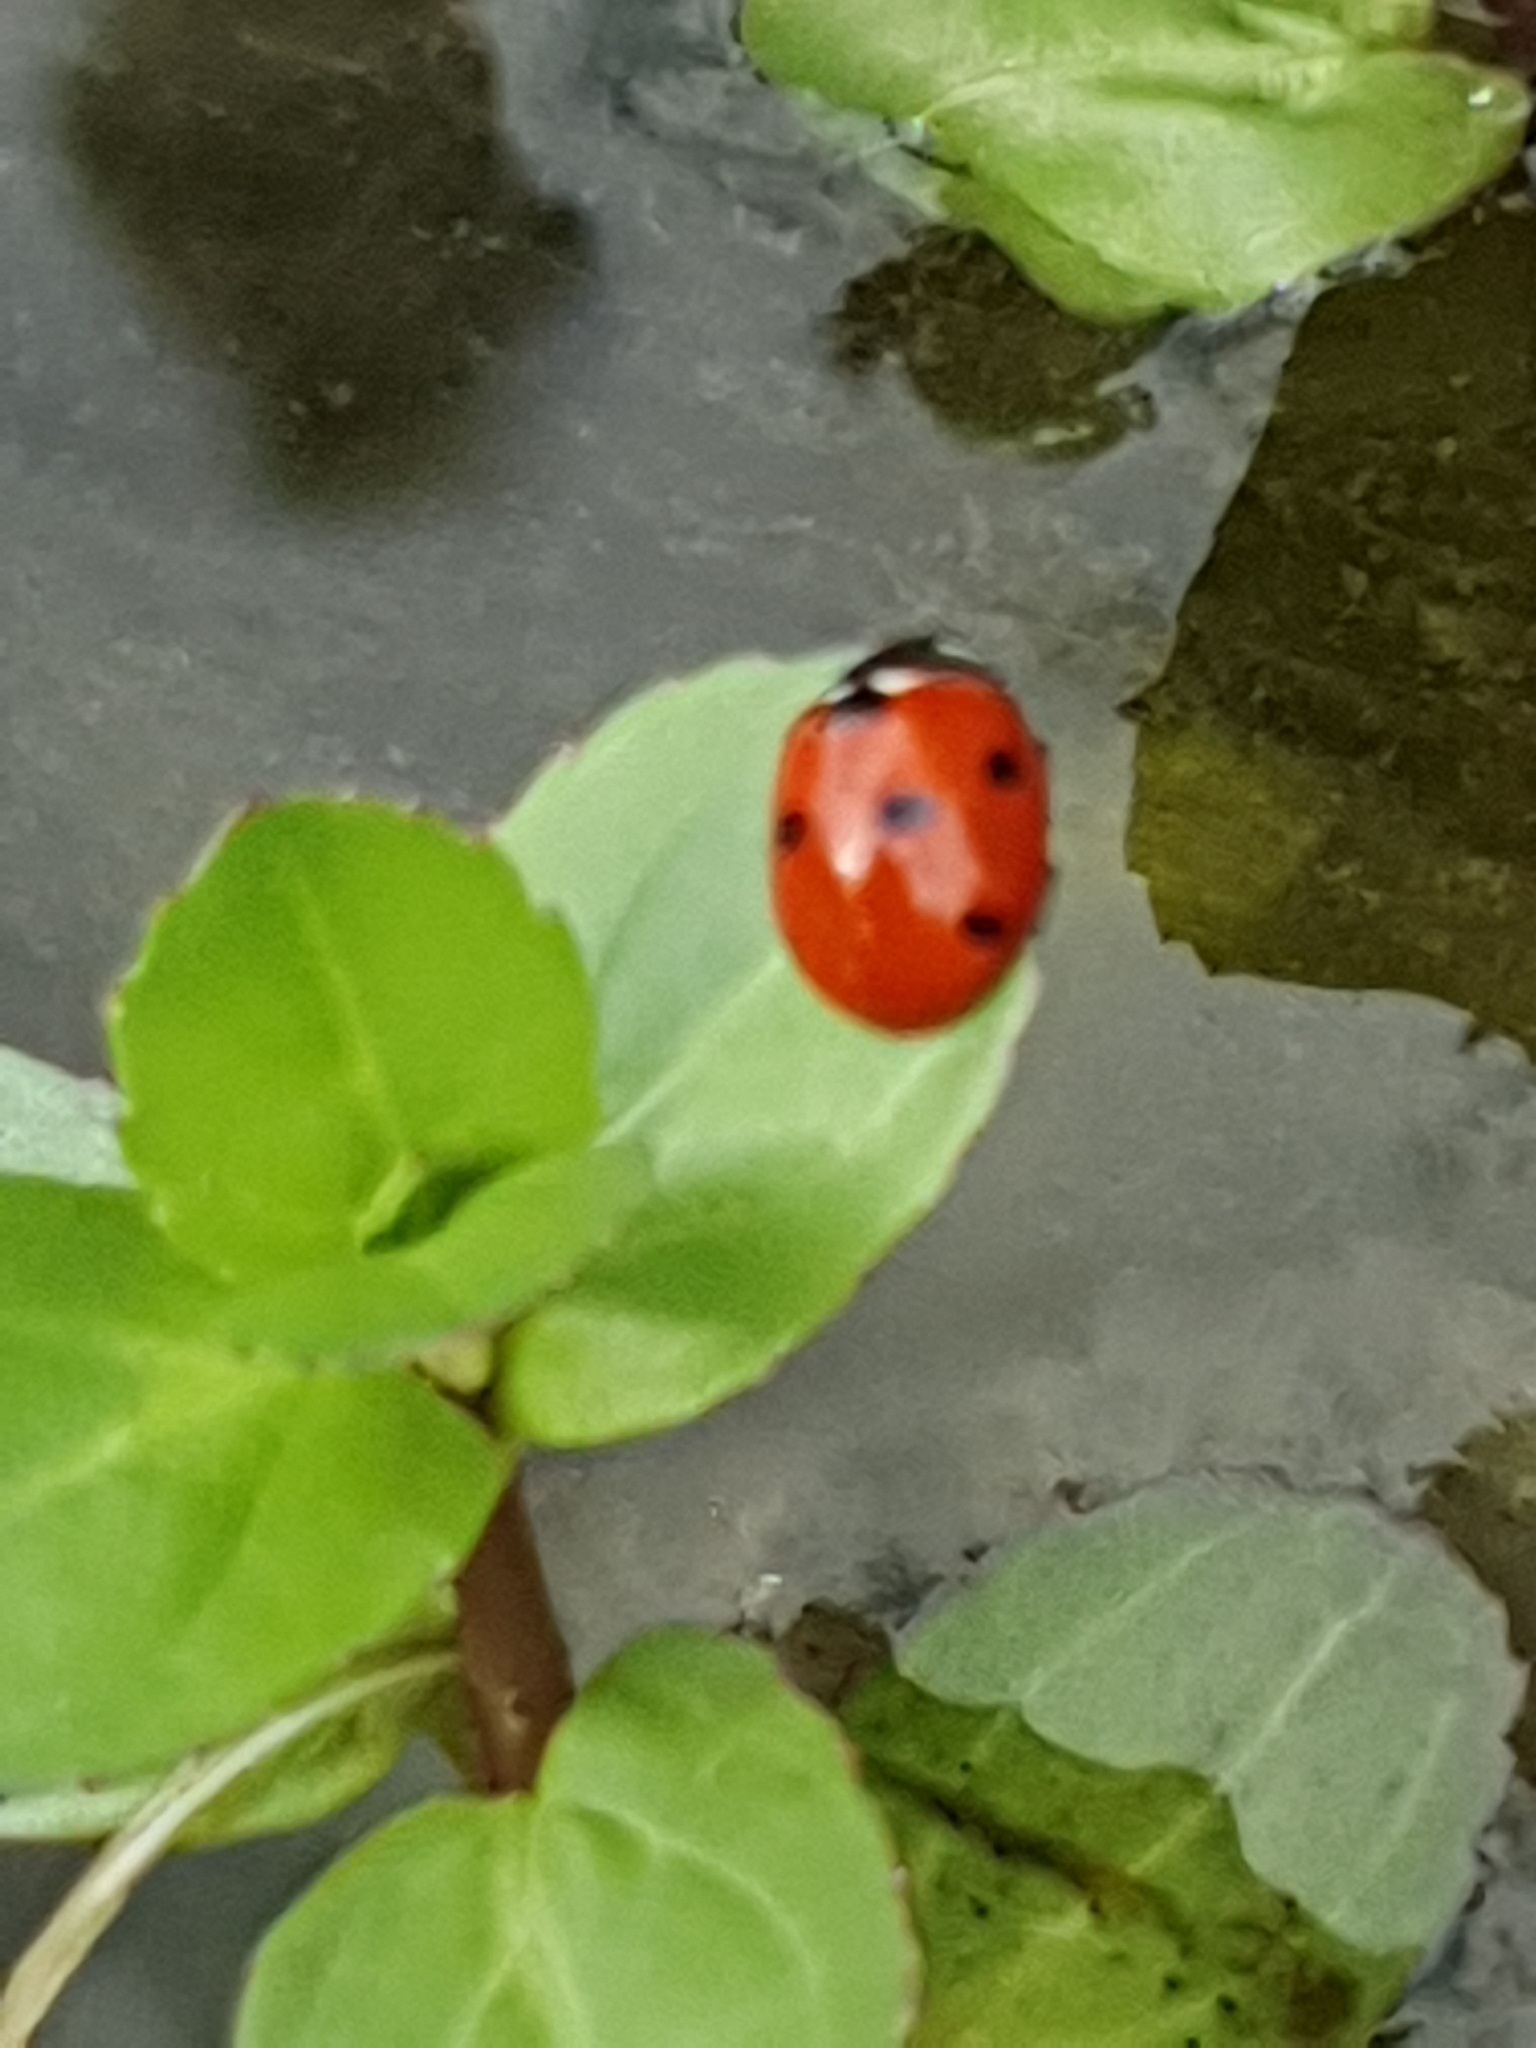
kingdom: Animalia
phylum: Arthropoda
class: Insecta
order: Coleoptera
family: Coccinellidae
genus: Coccinella
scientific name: Coccinella septempunctata
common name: Sevenspotted lady beetle
